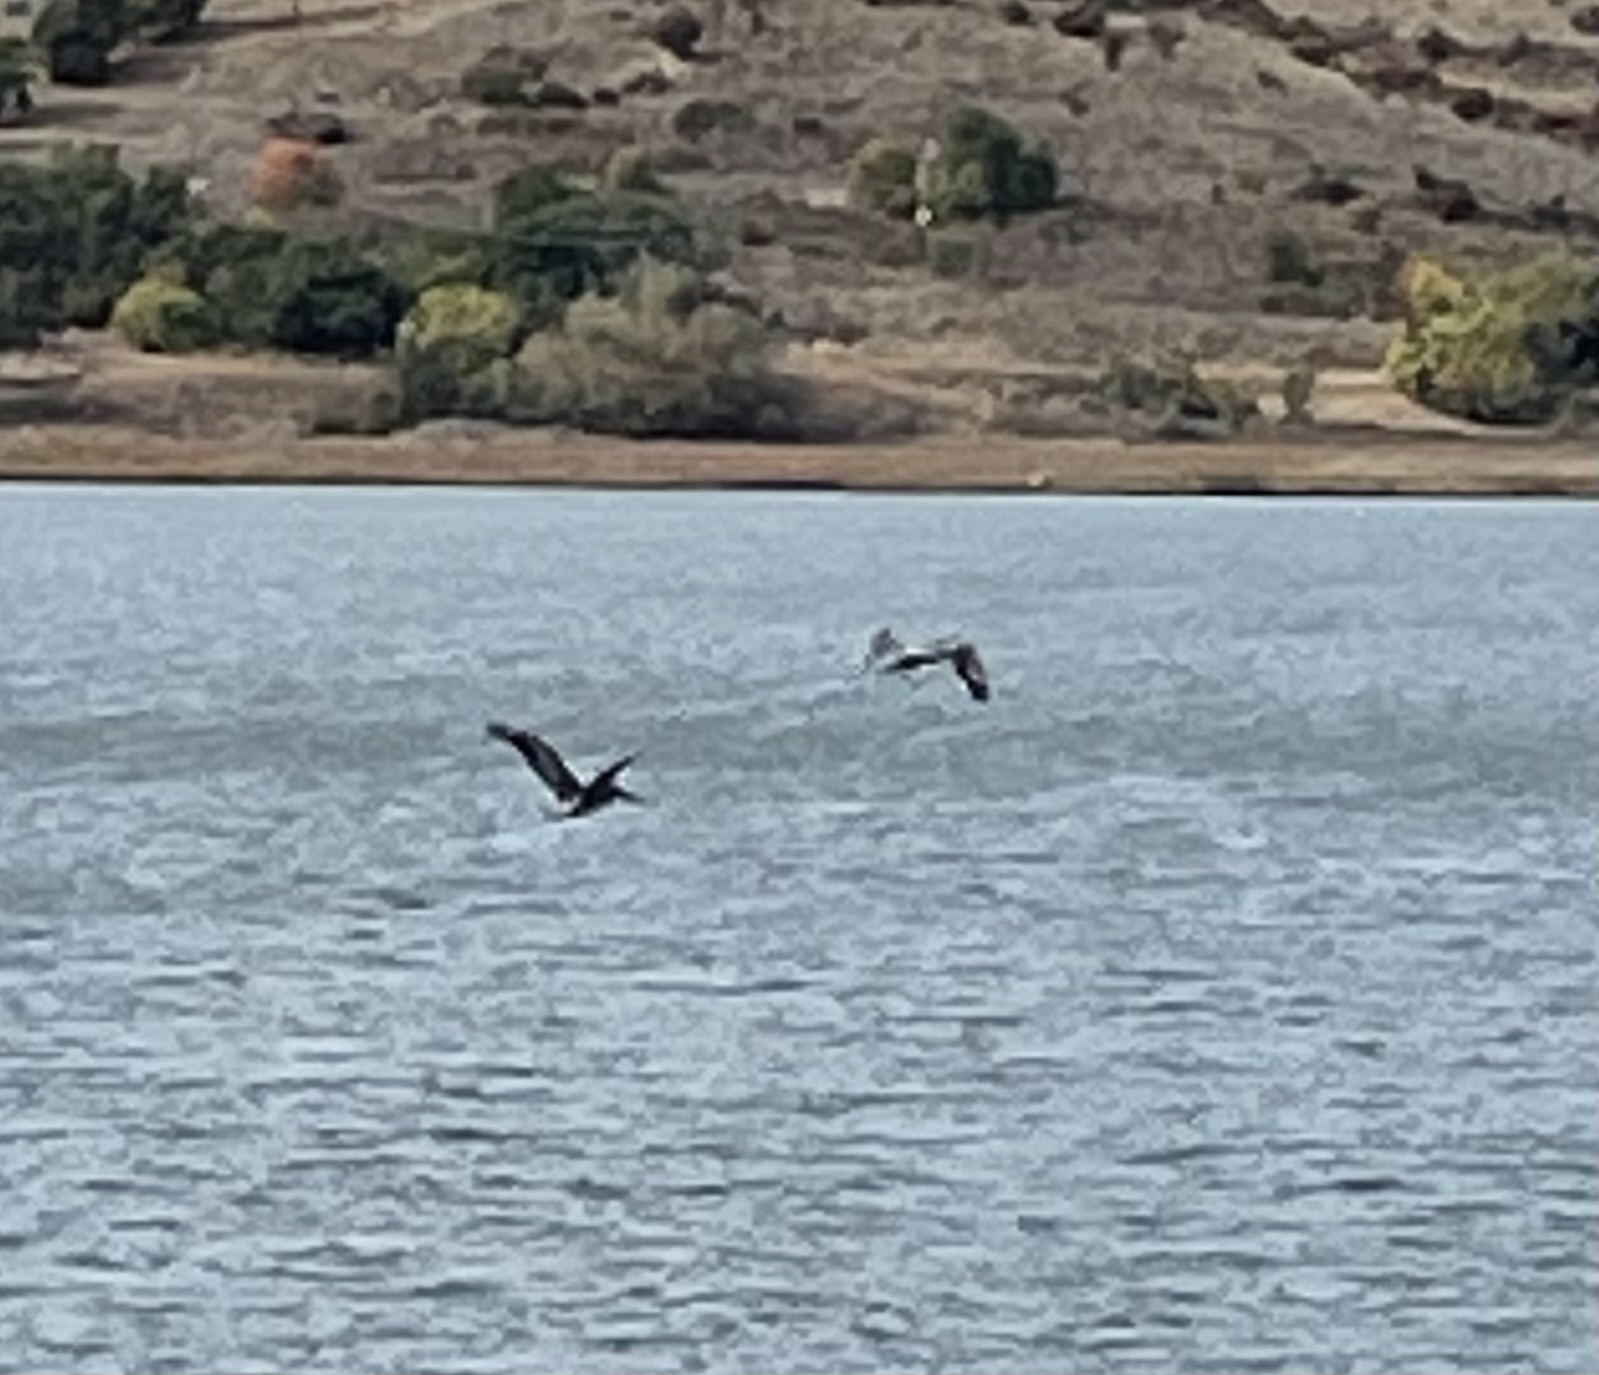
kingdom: Animalia
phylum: Chordata
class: Aves
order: Pelecaniformes
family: Pelecanidae
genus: Pelecanus
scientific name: Pelecanus occidentalis
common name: Brown pelican
